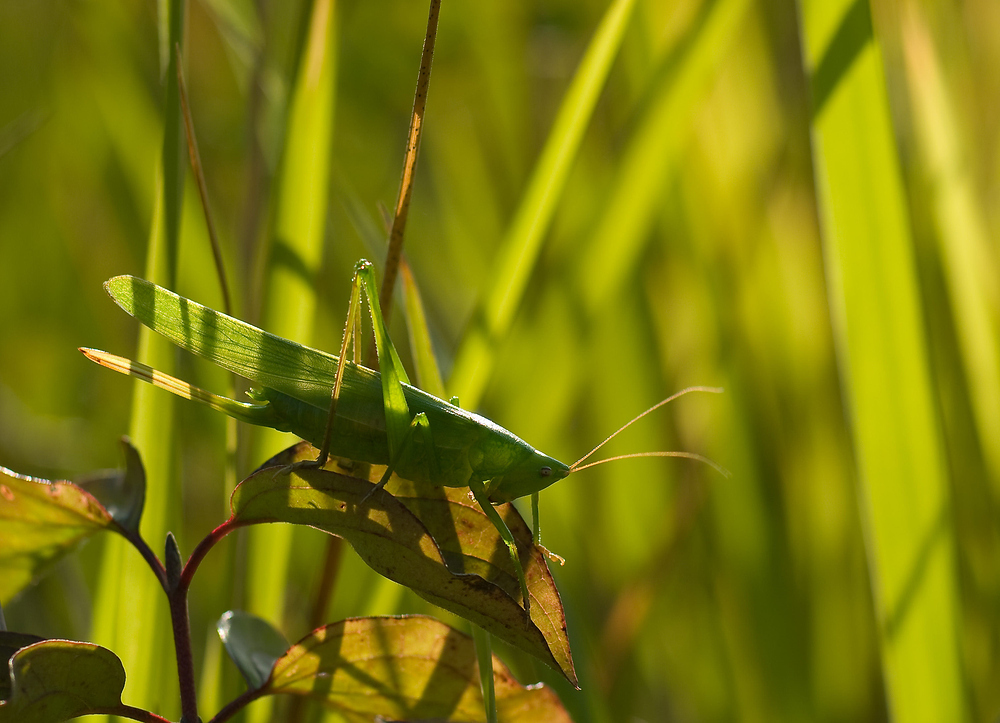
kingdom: Animalia
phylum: Arthropoda
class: Insecta
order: Orthoptera
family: Tettigoniidae
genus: Ruspolia
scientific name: Ruspolia nitidula
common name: Large conehead
